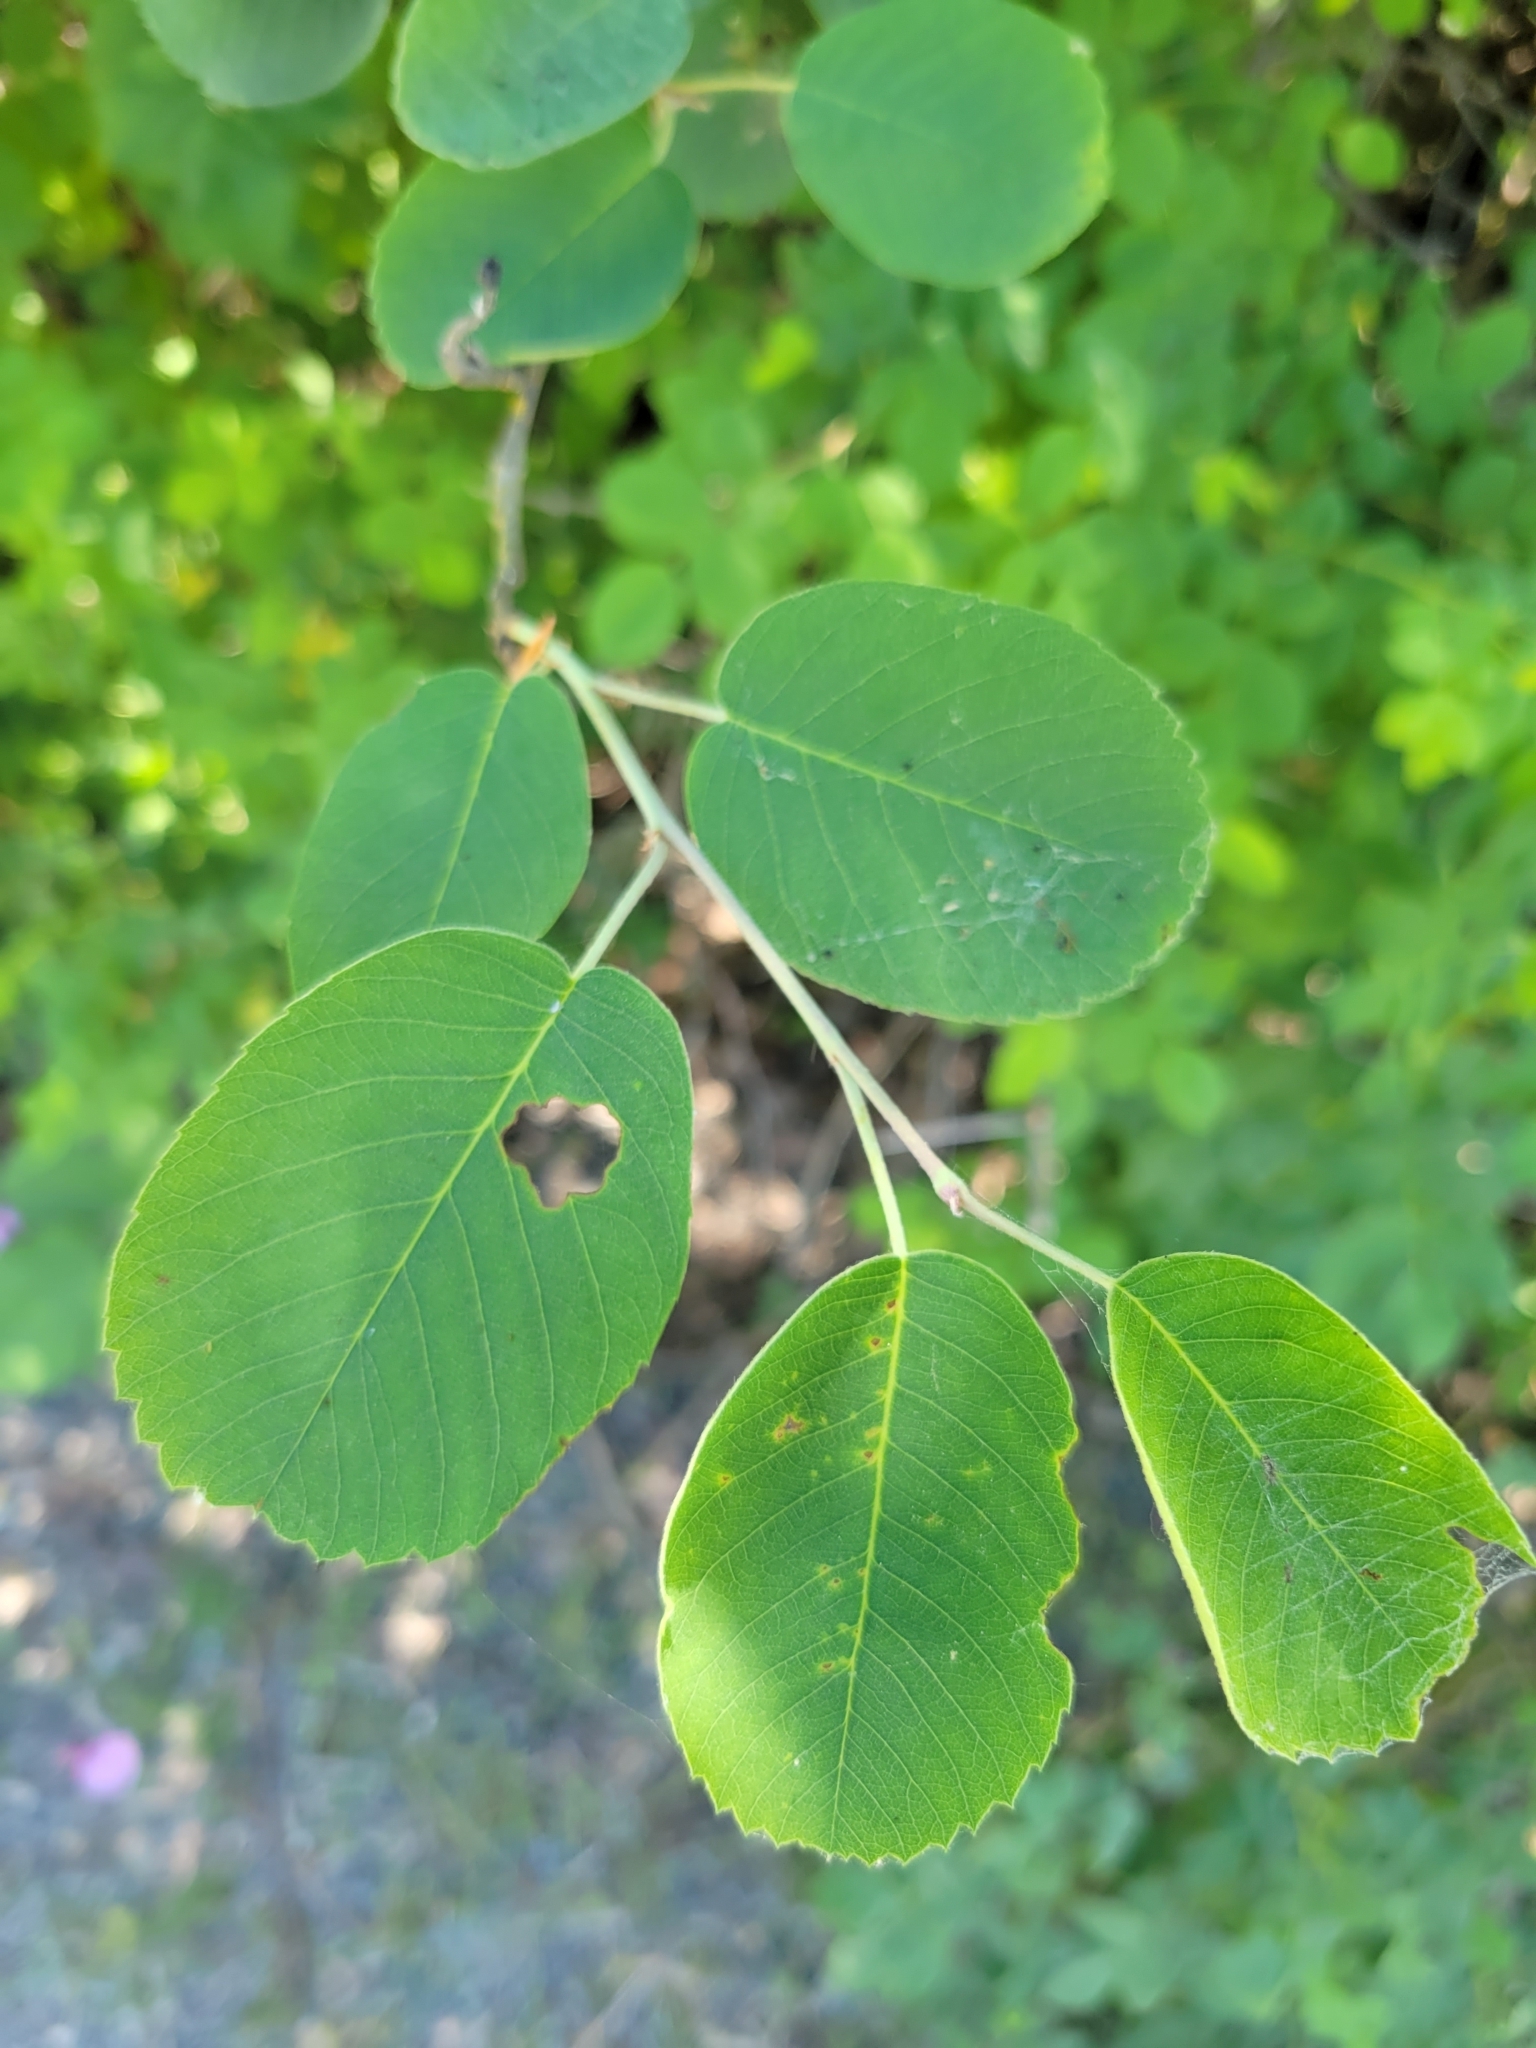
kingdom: Plantae
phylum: Tracheophyta
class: Magnoliopsida
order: Rosales
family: Rosaceae
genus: Amelanchier
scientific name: Amelanchier alnifolia
